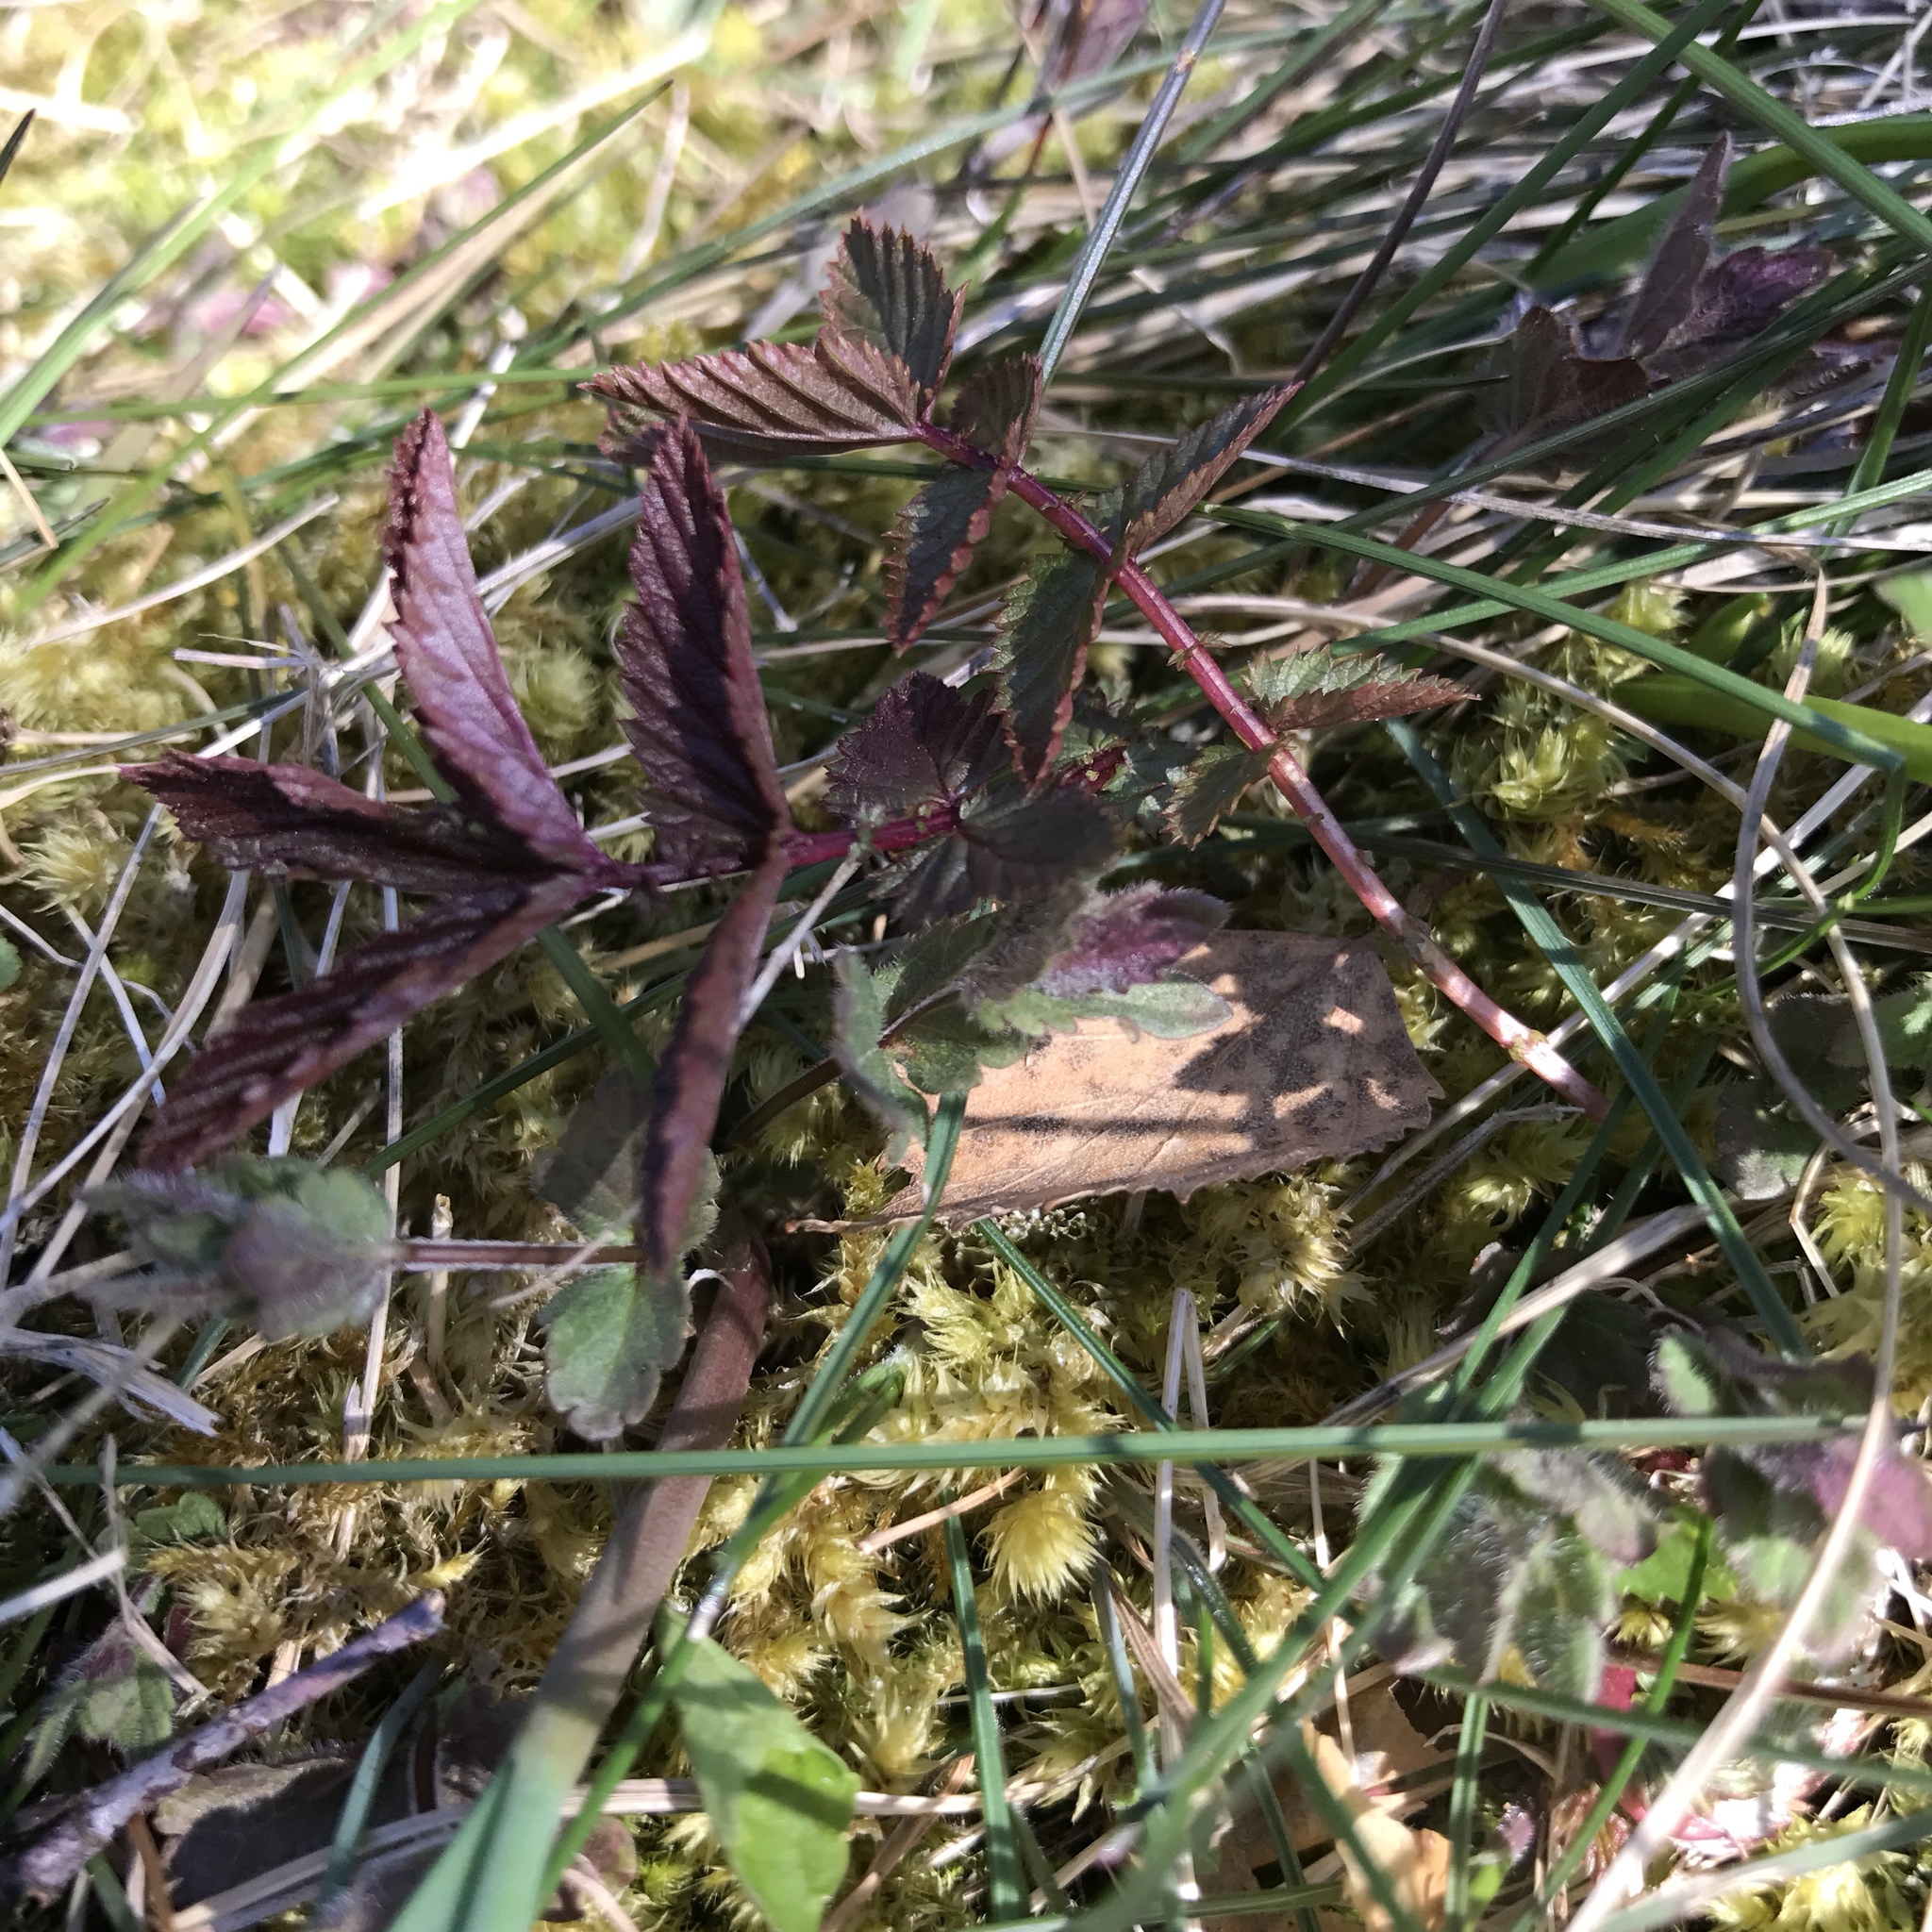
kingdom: Plantae
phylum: Tracheophyta
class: Magnoliopsida
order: Rosales
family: Rosaceae
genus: Filipendula
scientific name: Filipendula ulmaria
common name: Meadowsweet
